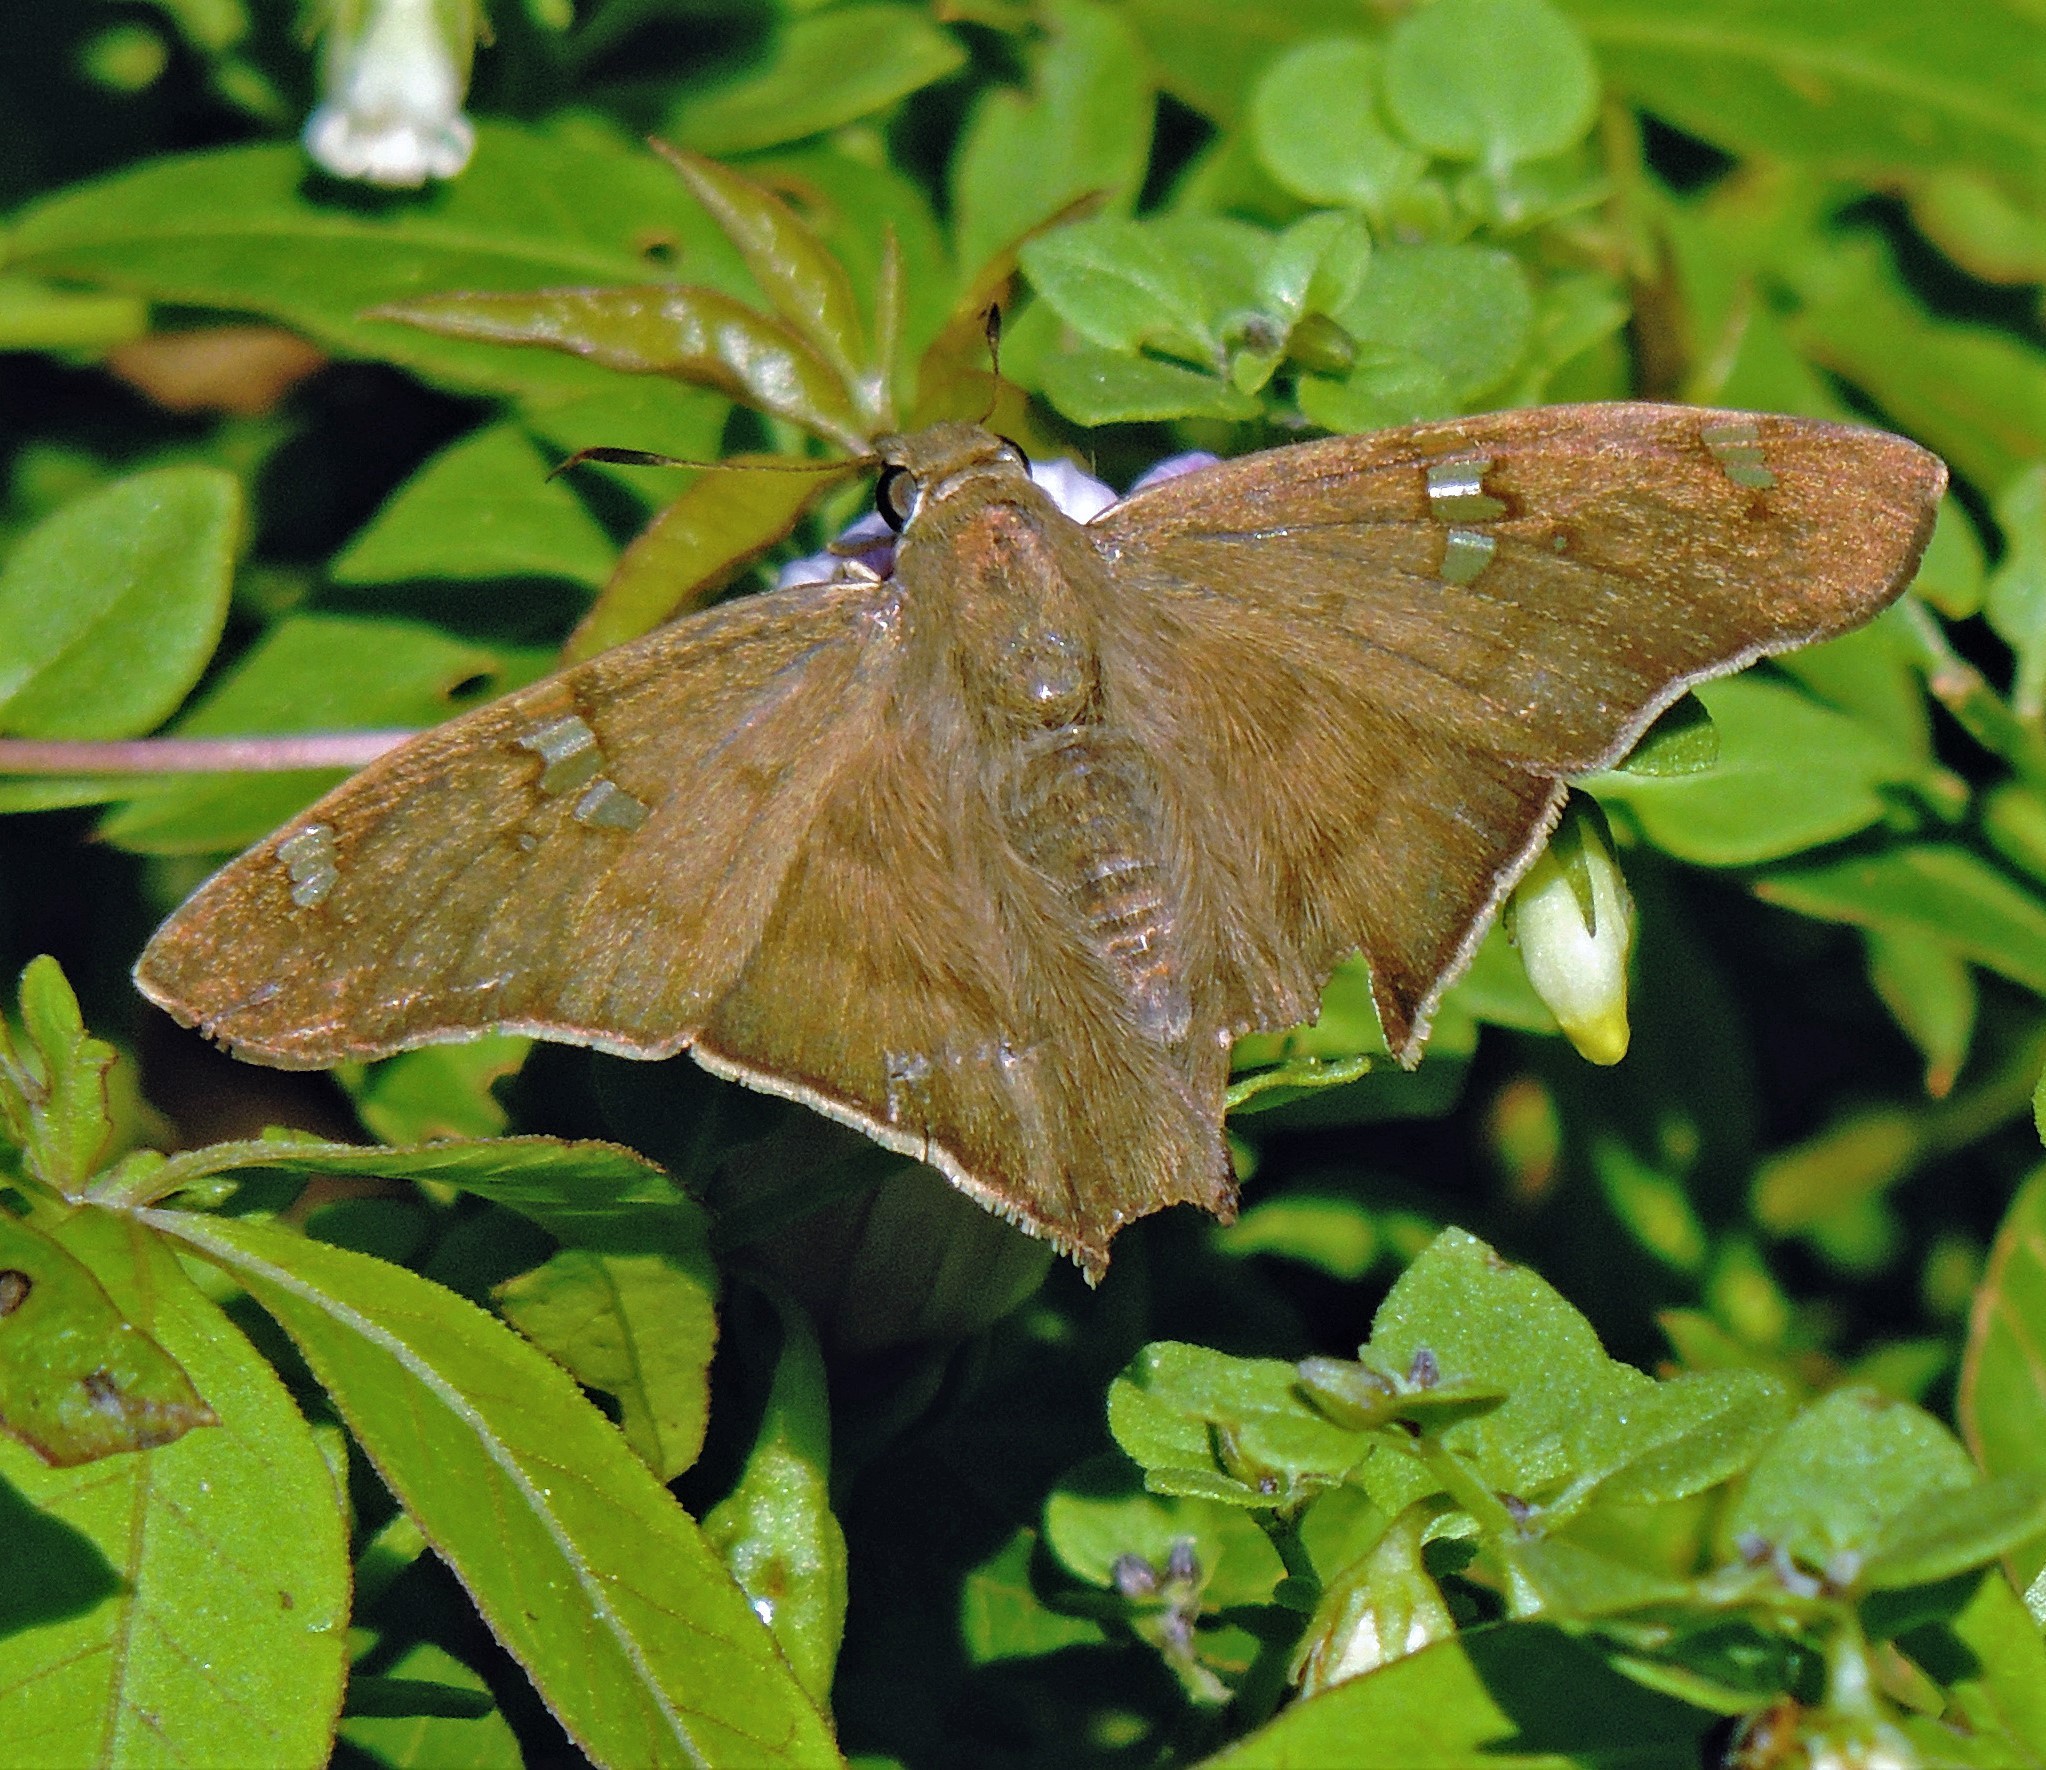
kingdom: Animalia
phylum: Arthropoda
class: Insecta
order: Lepidoptera
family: Hesperiidae
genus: Polythrix
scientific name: Polythrix octomaculata
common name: Eight-spotted longtail
